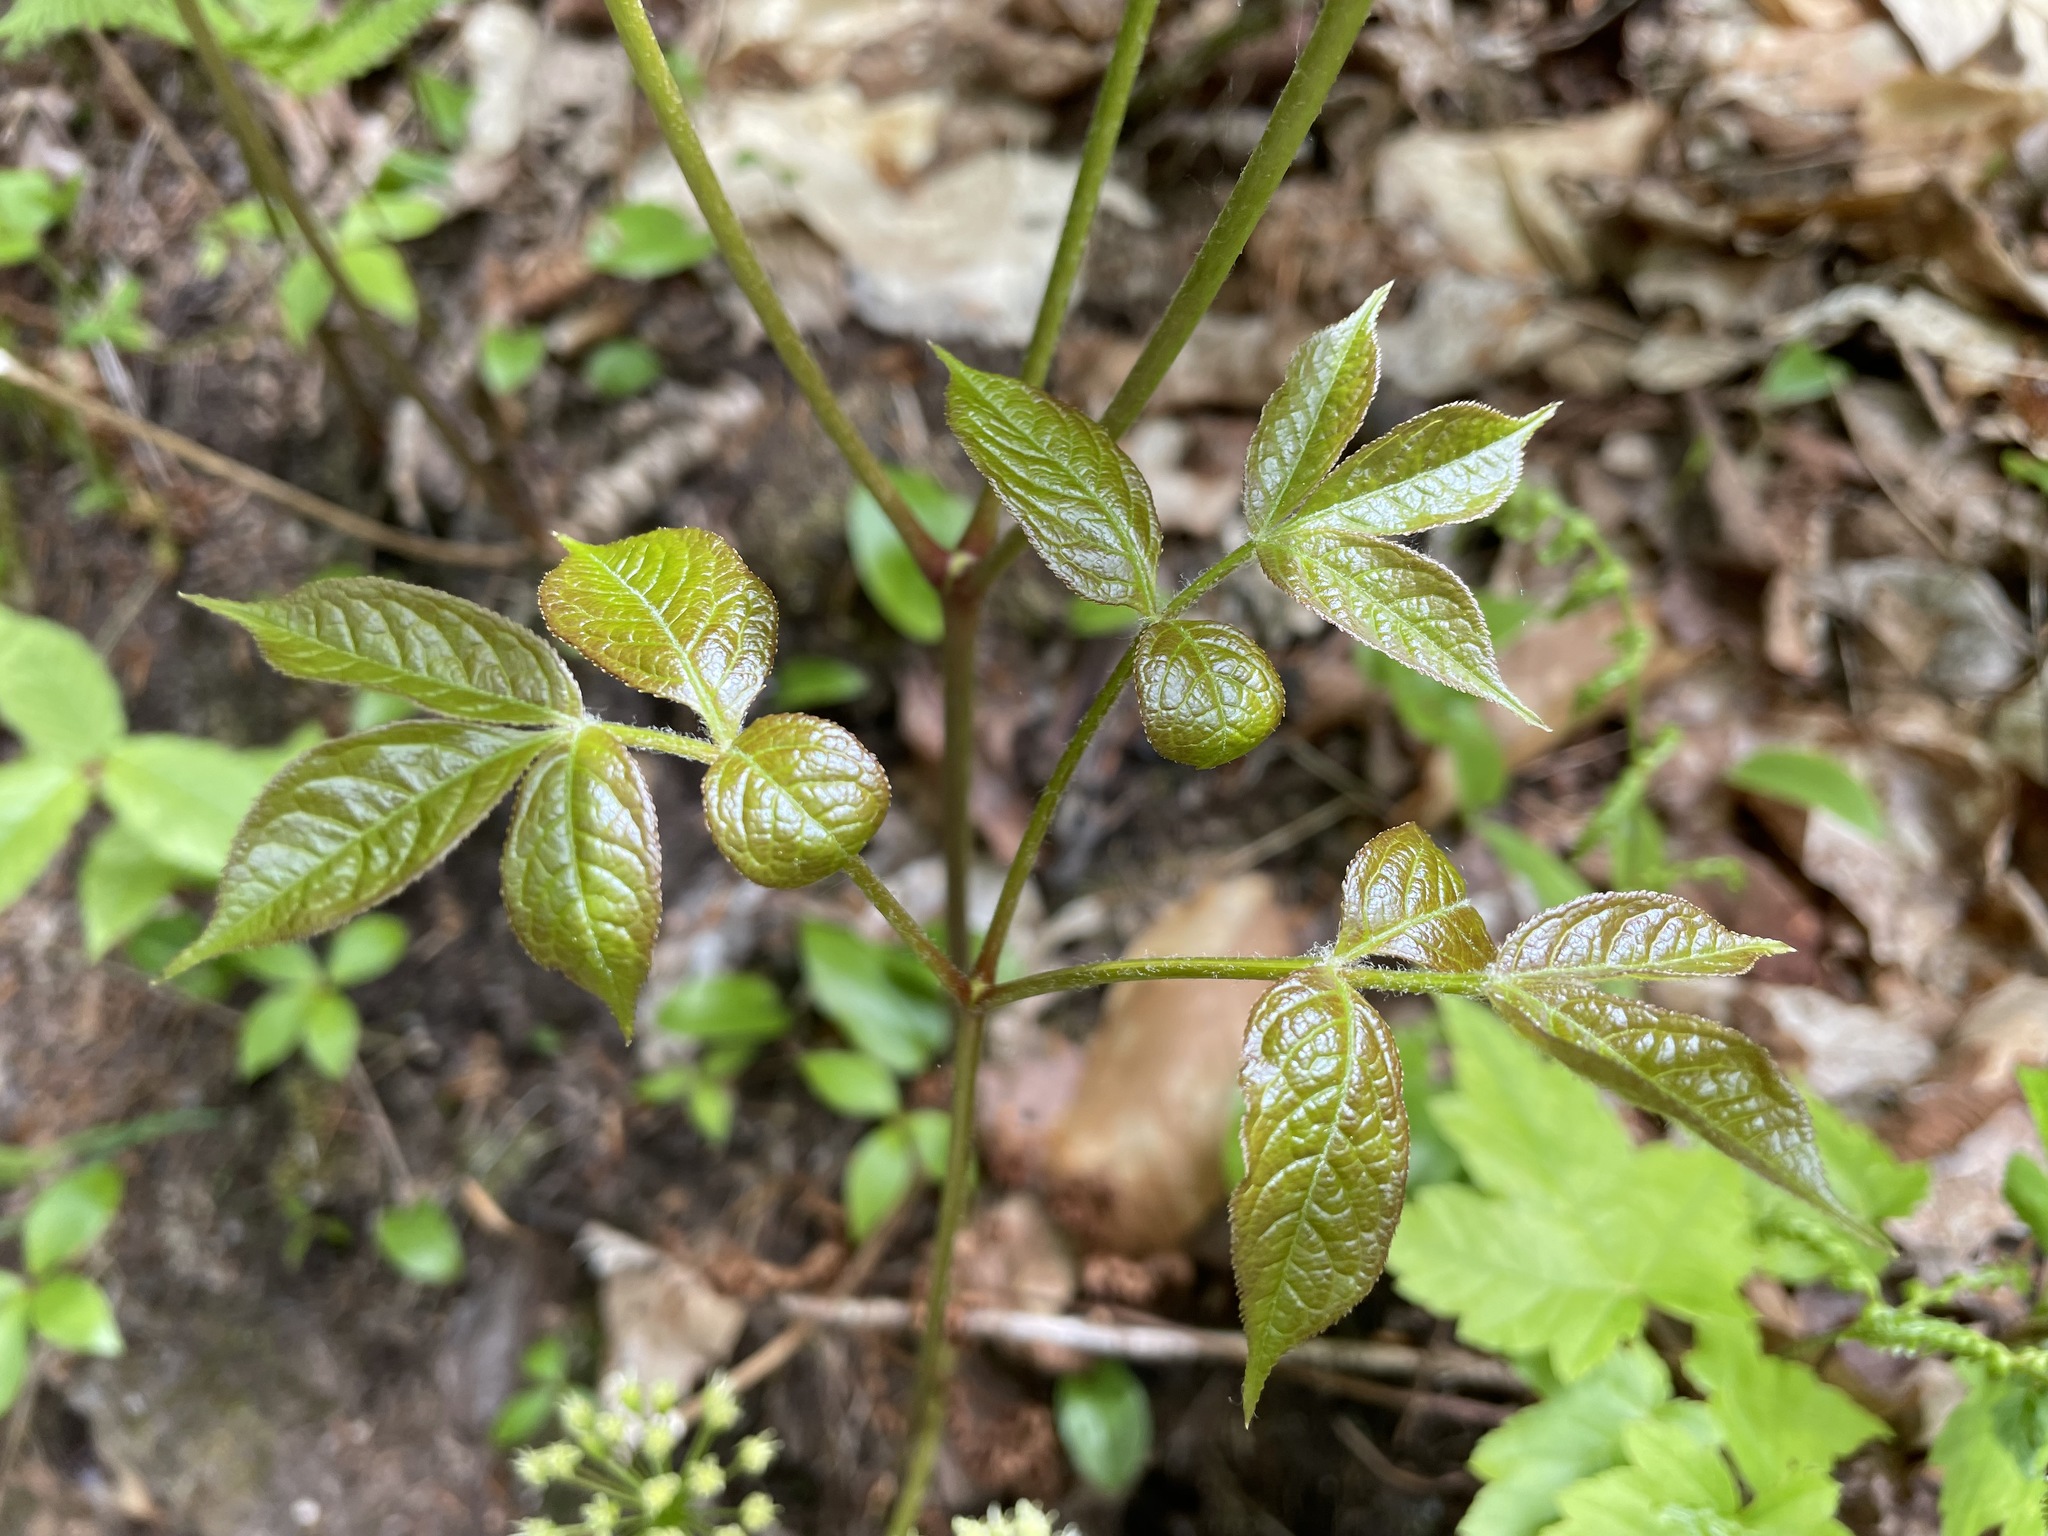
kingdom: Plantae
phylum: Tracheophyta
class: Magnoliopsida
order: Apiales
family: Araliaceae
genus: Aralia
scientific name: Aralia nudicaulis
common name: Wild sarsaparilla
